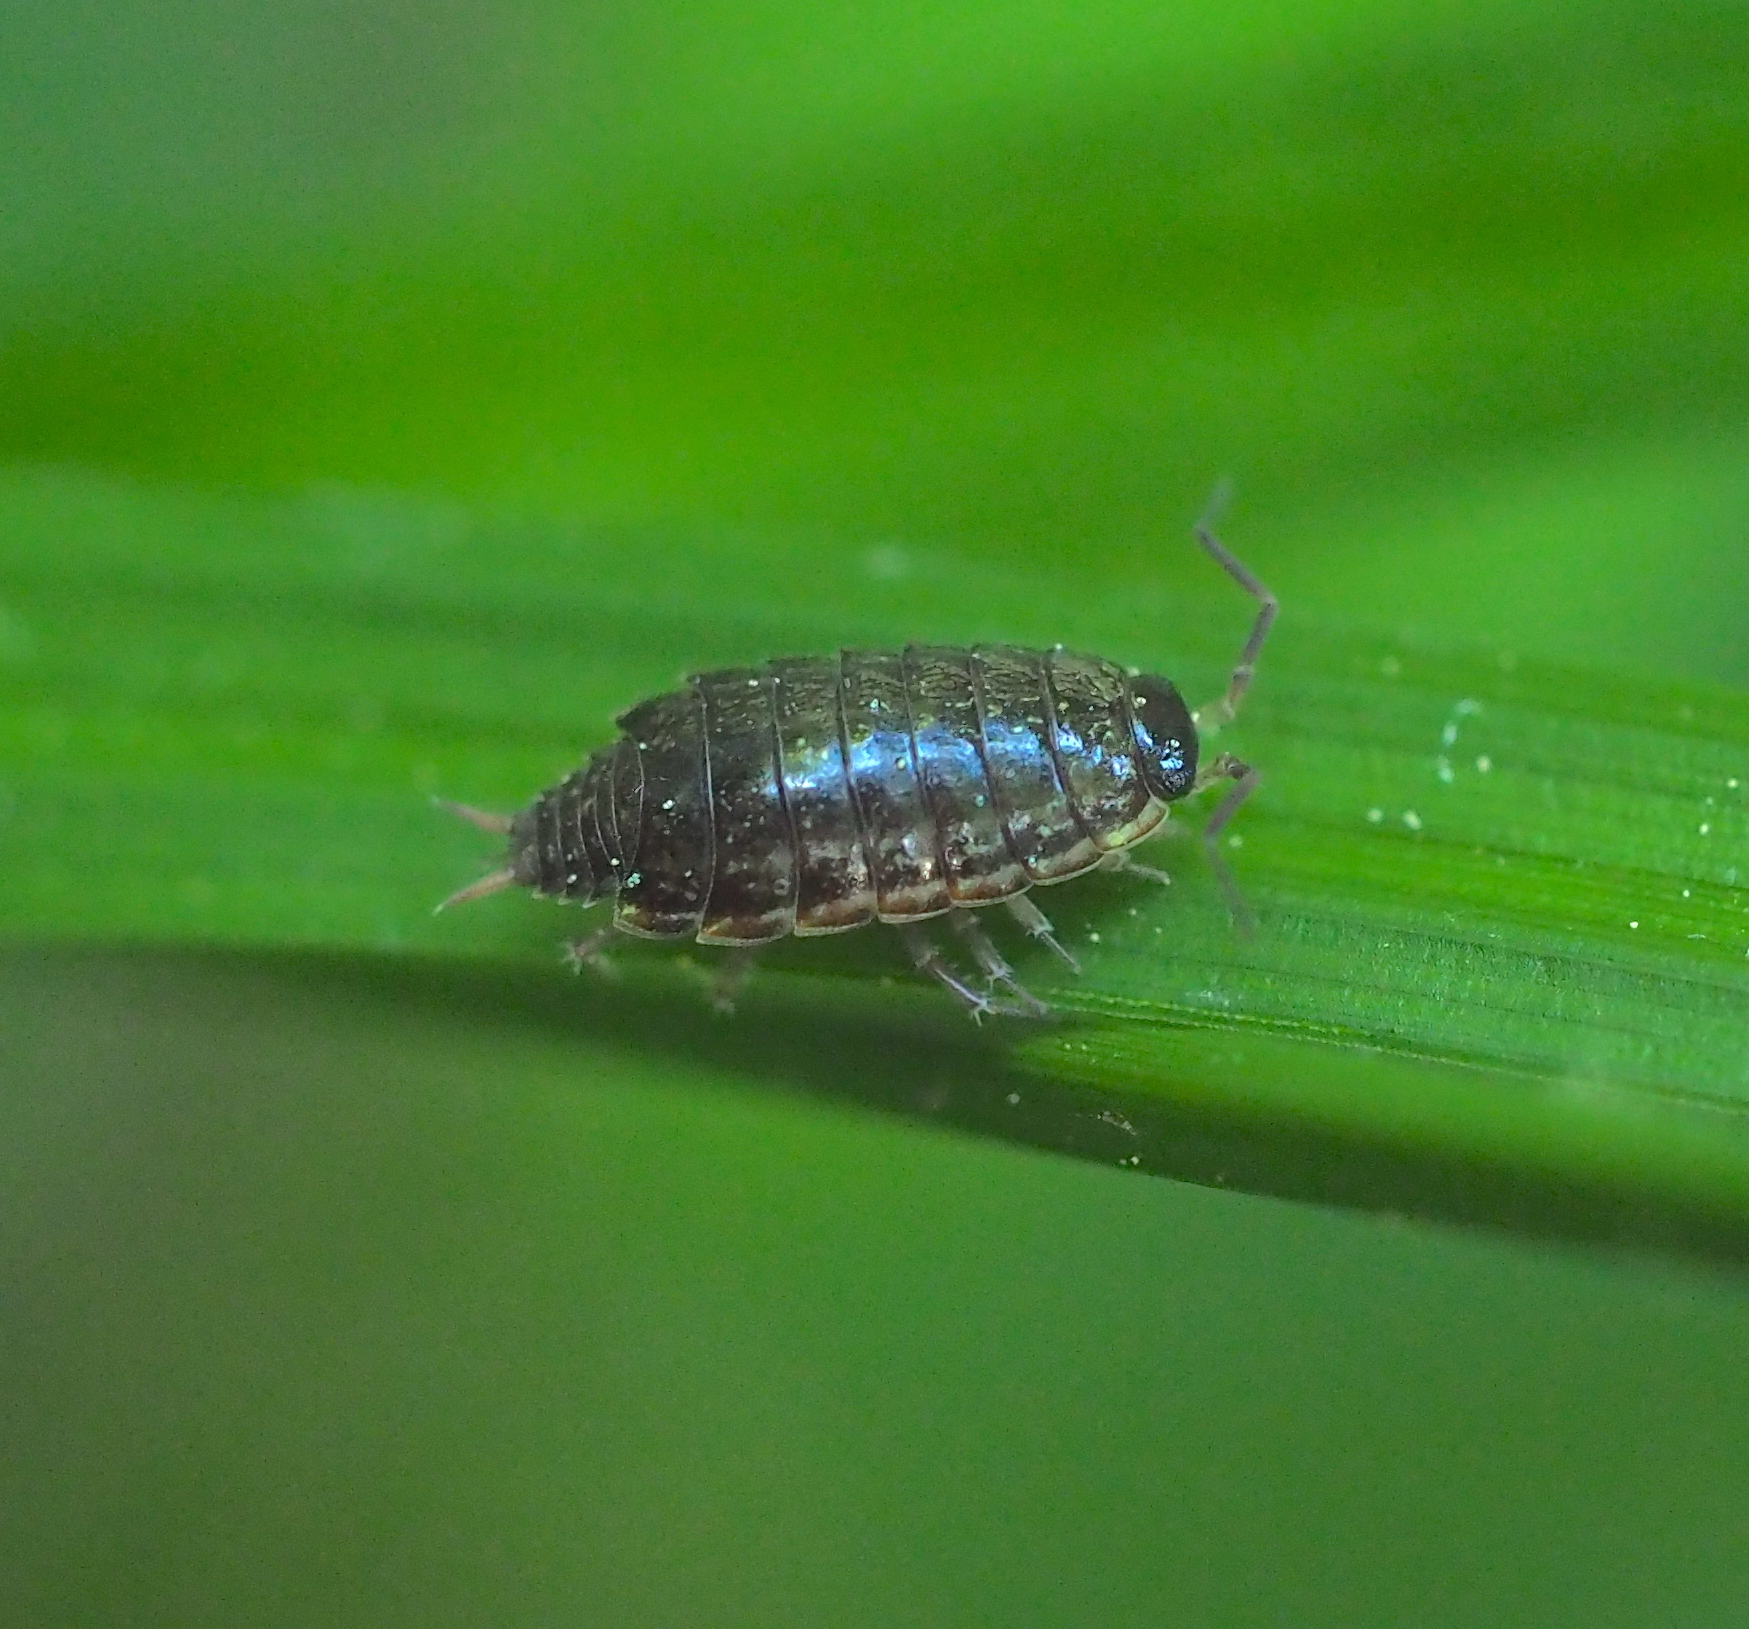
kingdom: Animalia
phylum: Arthropoda
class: Malacostraca
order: Isopoda
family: Philosciidae
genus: Philoscia
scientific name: Philoscia muscorum
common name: Common striped woodlouse
